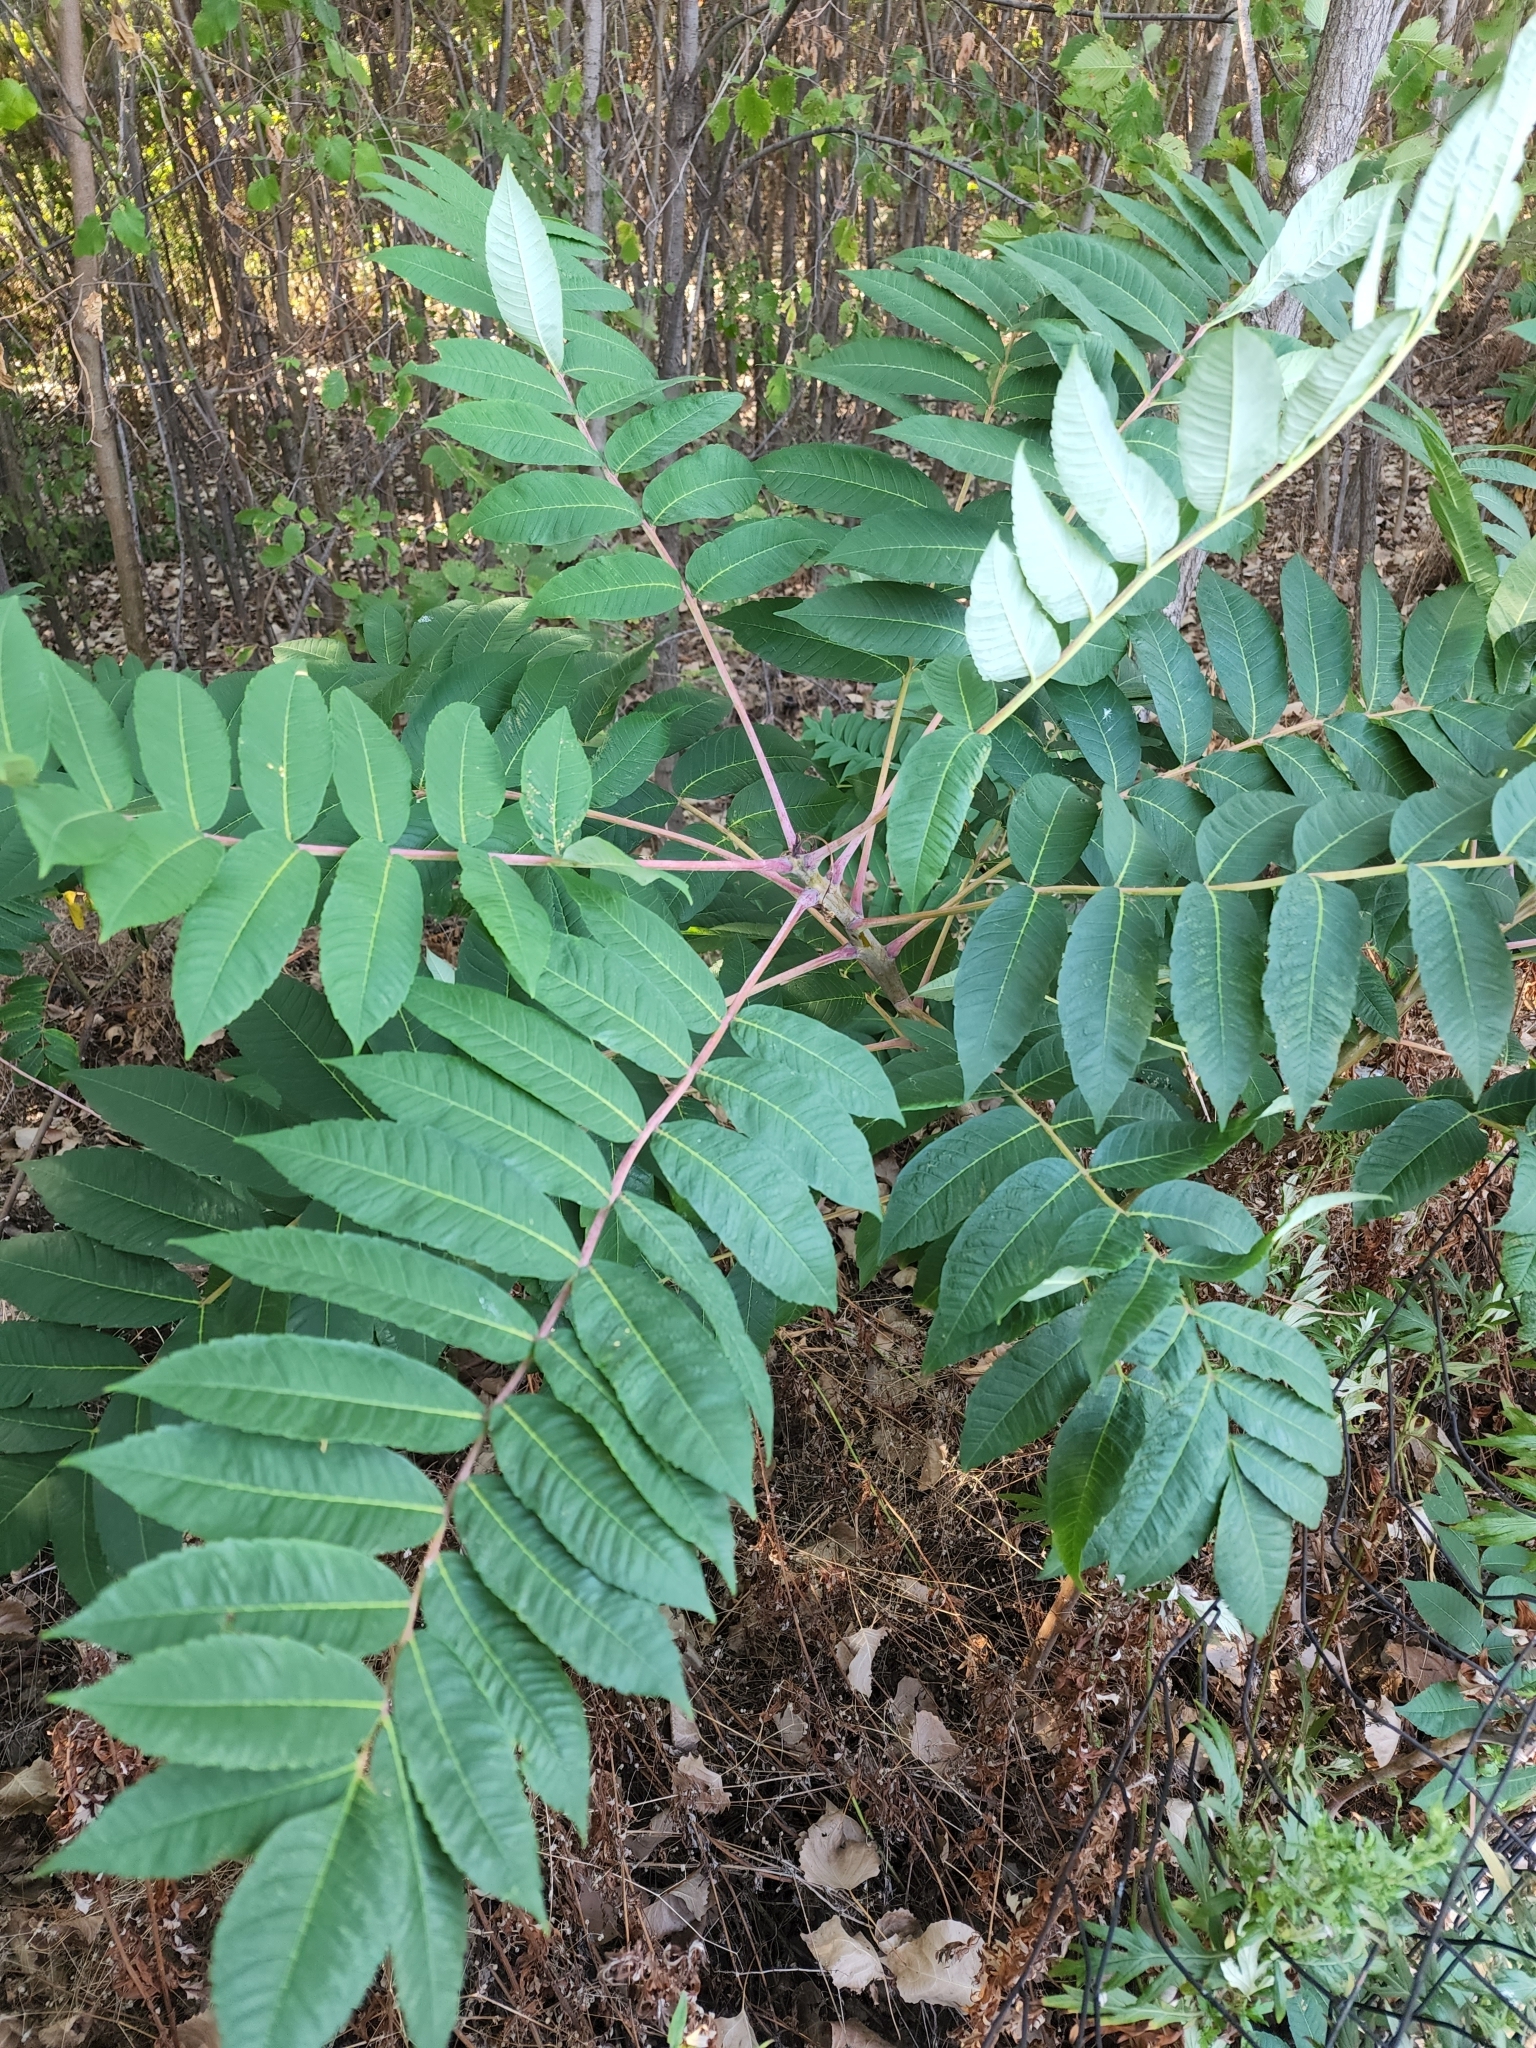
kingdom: Plantae
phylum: Tracheophyta
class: Magnoliopsida
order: Sapindales
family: Anacardiaceae
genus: Rhus
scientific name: Rhus glabra
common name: Scarlet sumac
